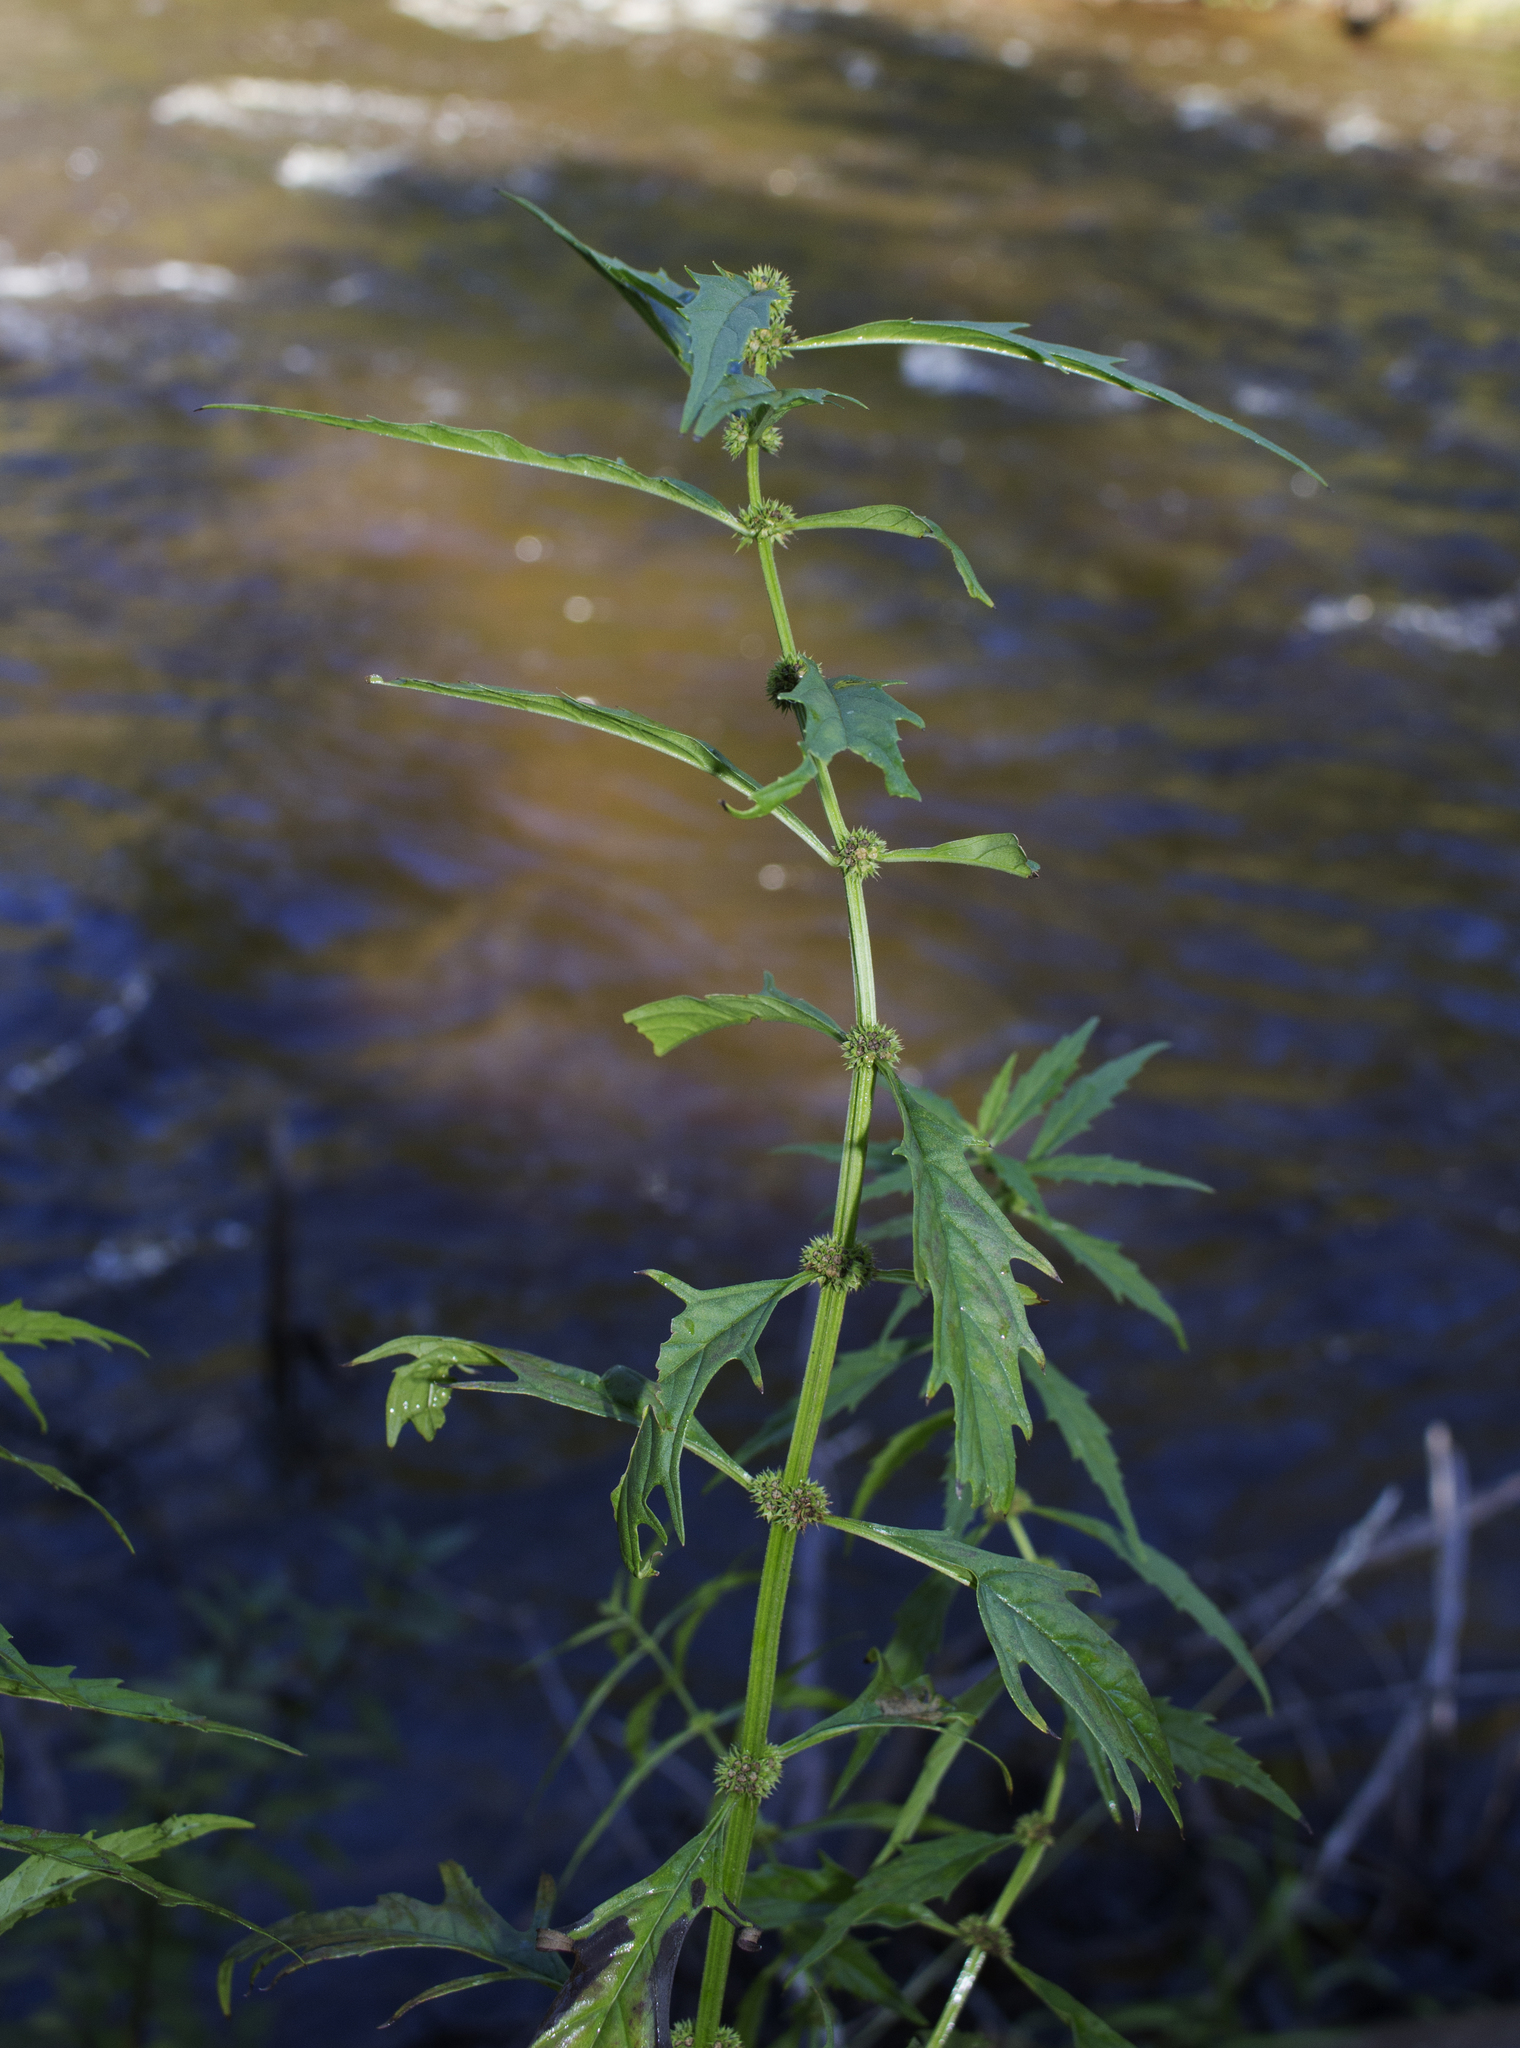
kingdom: Plantae
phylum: Tracheophyta
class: Magnoliopsida
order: Lamiales
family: Lamiaceae
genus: Lycopus
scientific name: Lycopus americanus
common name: American bugleweed
